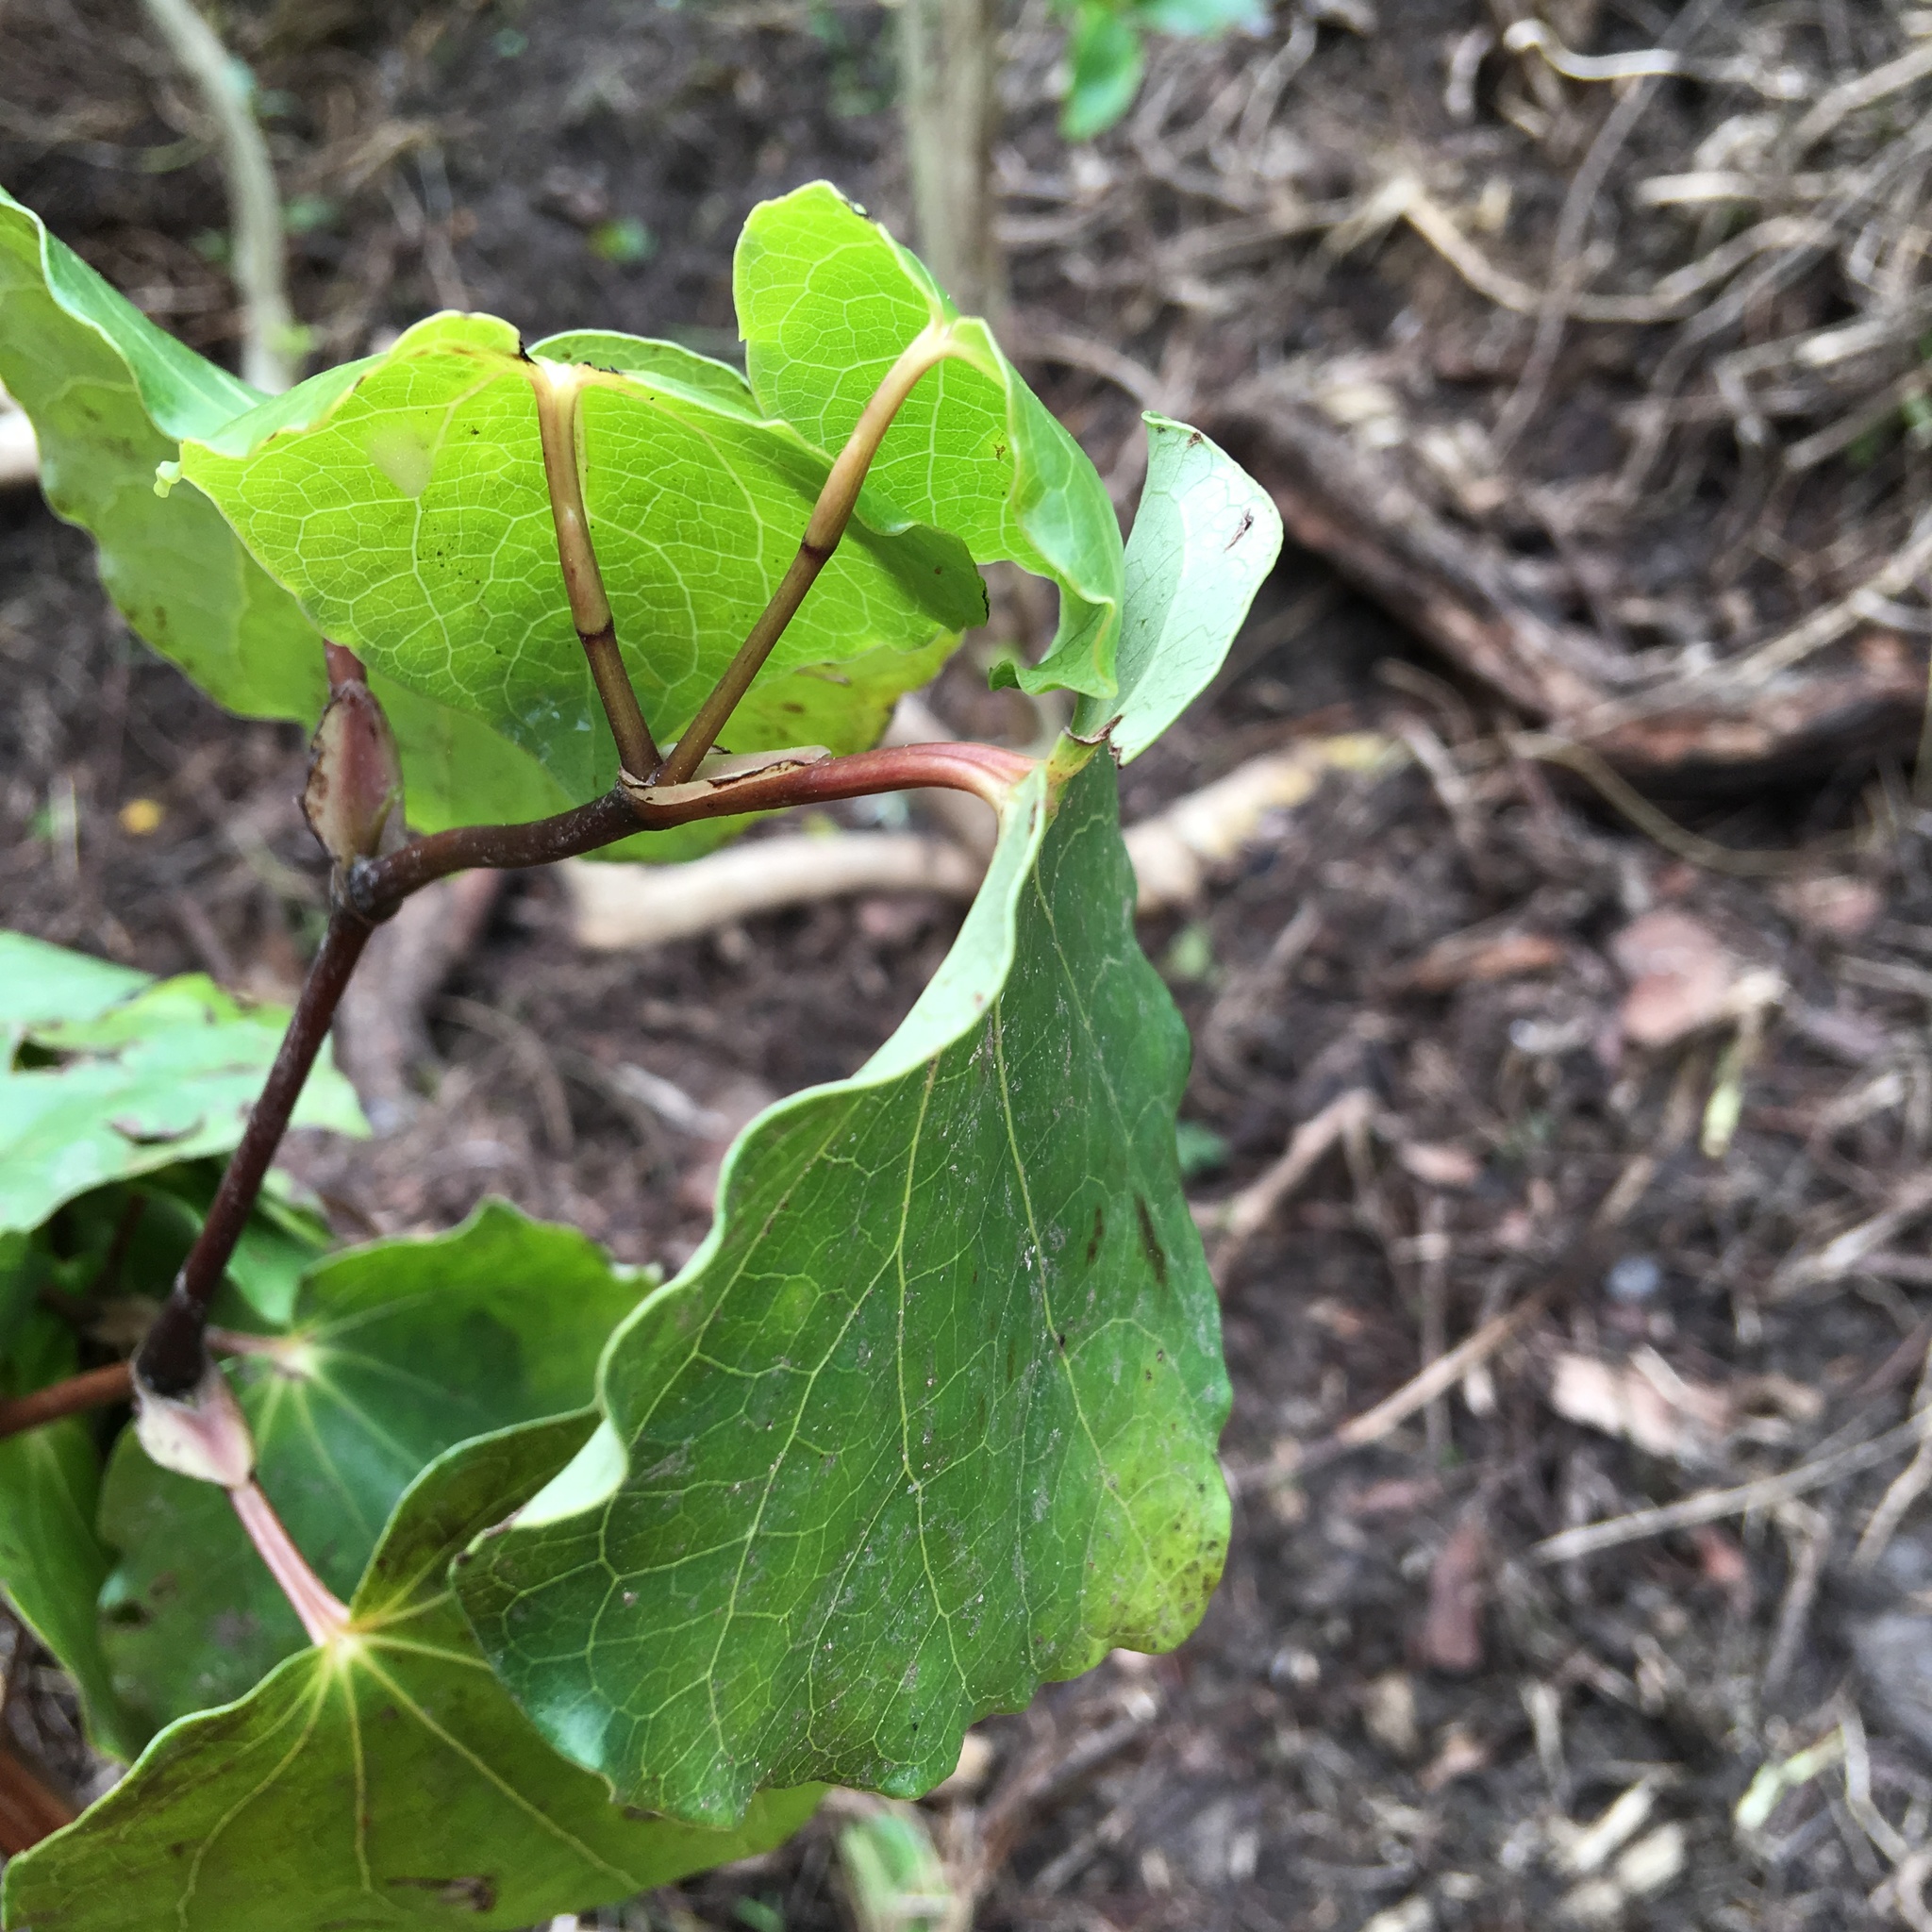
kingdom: Plantae
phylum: Tracheophyta
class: Magnoliopsida
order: Piperales
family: Piperaceae
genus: Macropiper
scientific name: Macropiper excelsum
